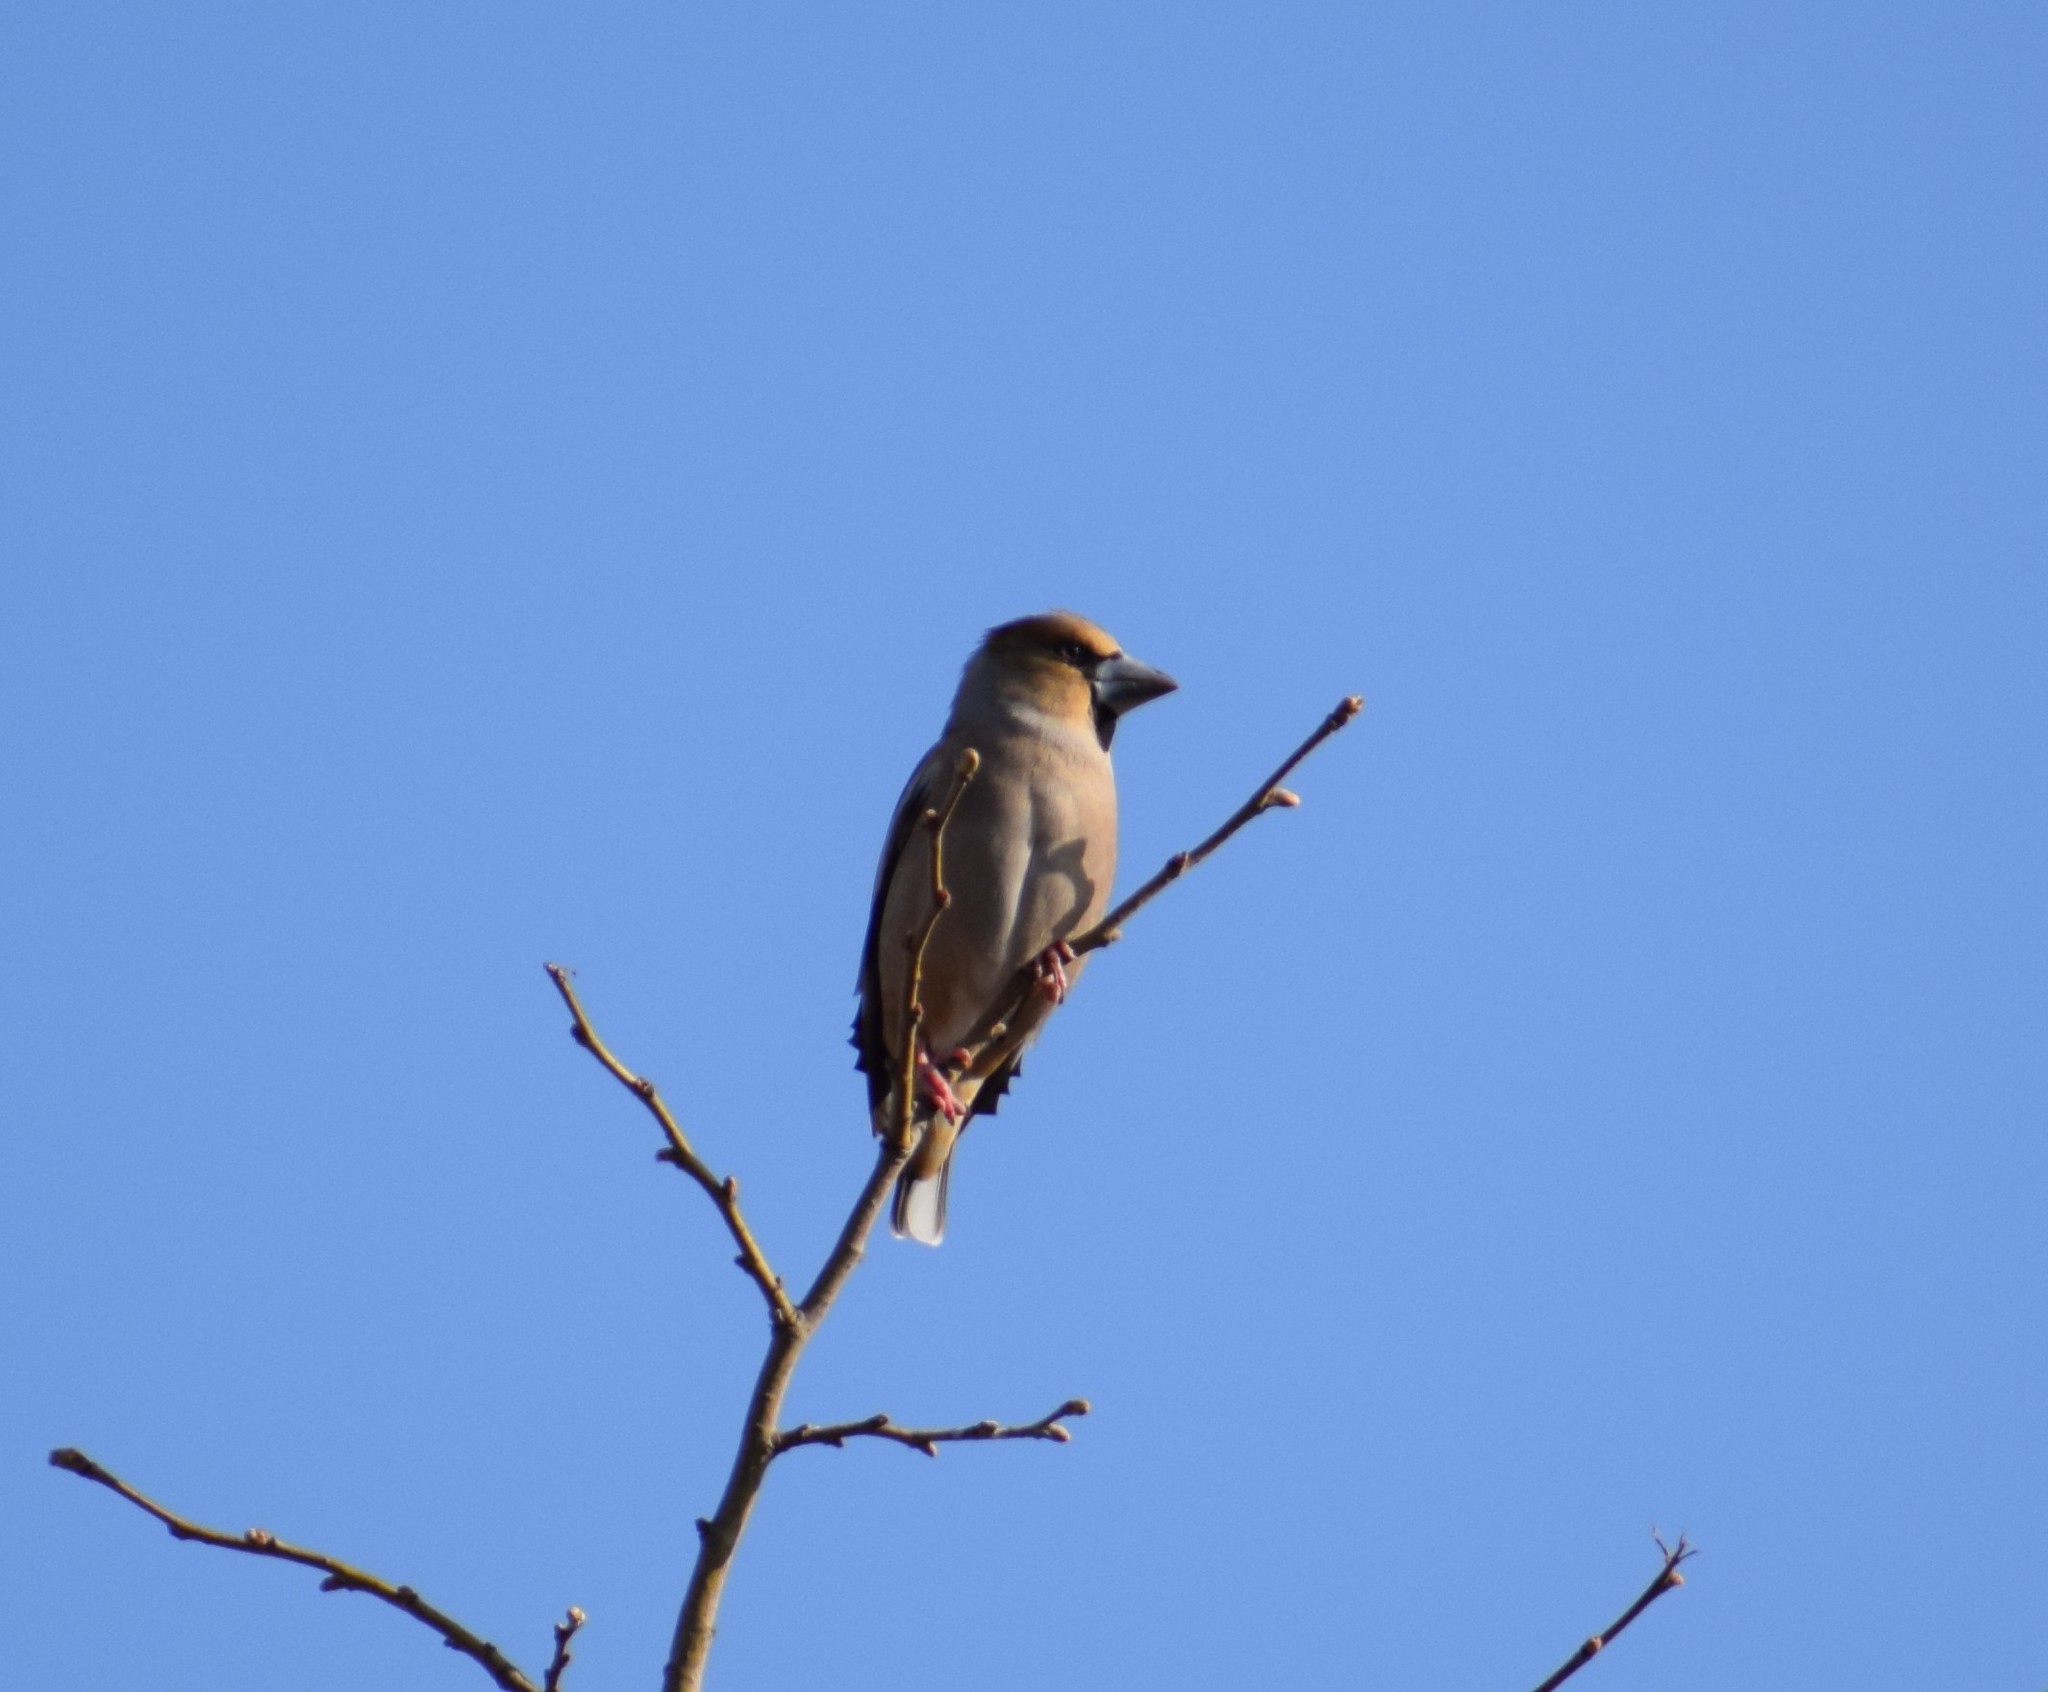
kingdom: Animalia
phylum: Chordata
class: Aves
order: Passeriformes
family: Fringillidae
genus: Coccothraustes
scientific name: Coccothraustes coccothraustes
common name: Hawfinch
